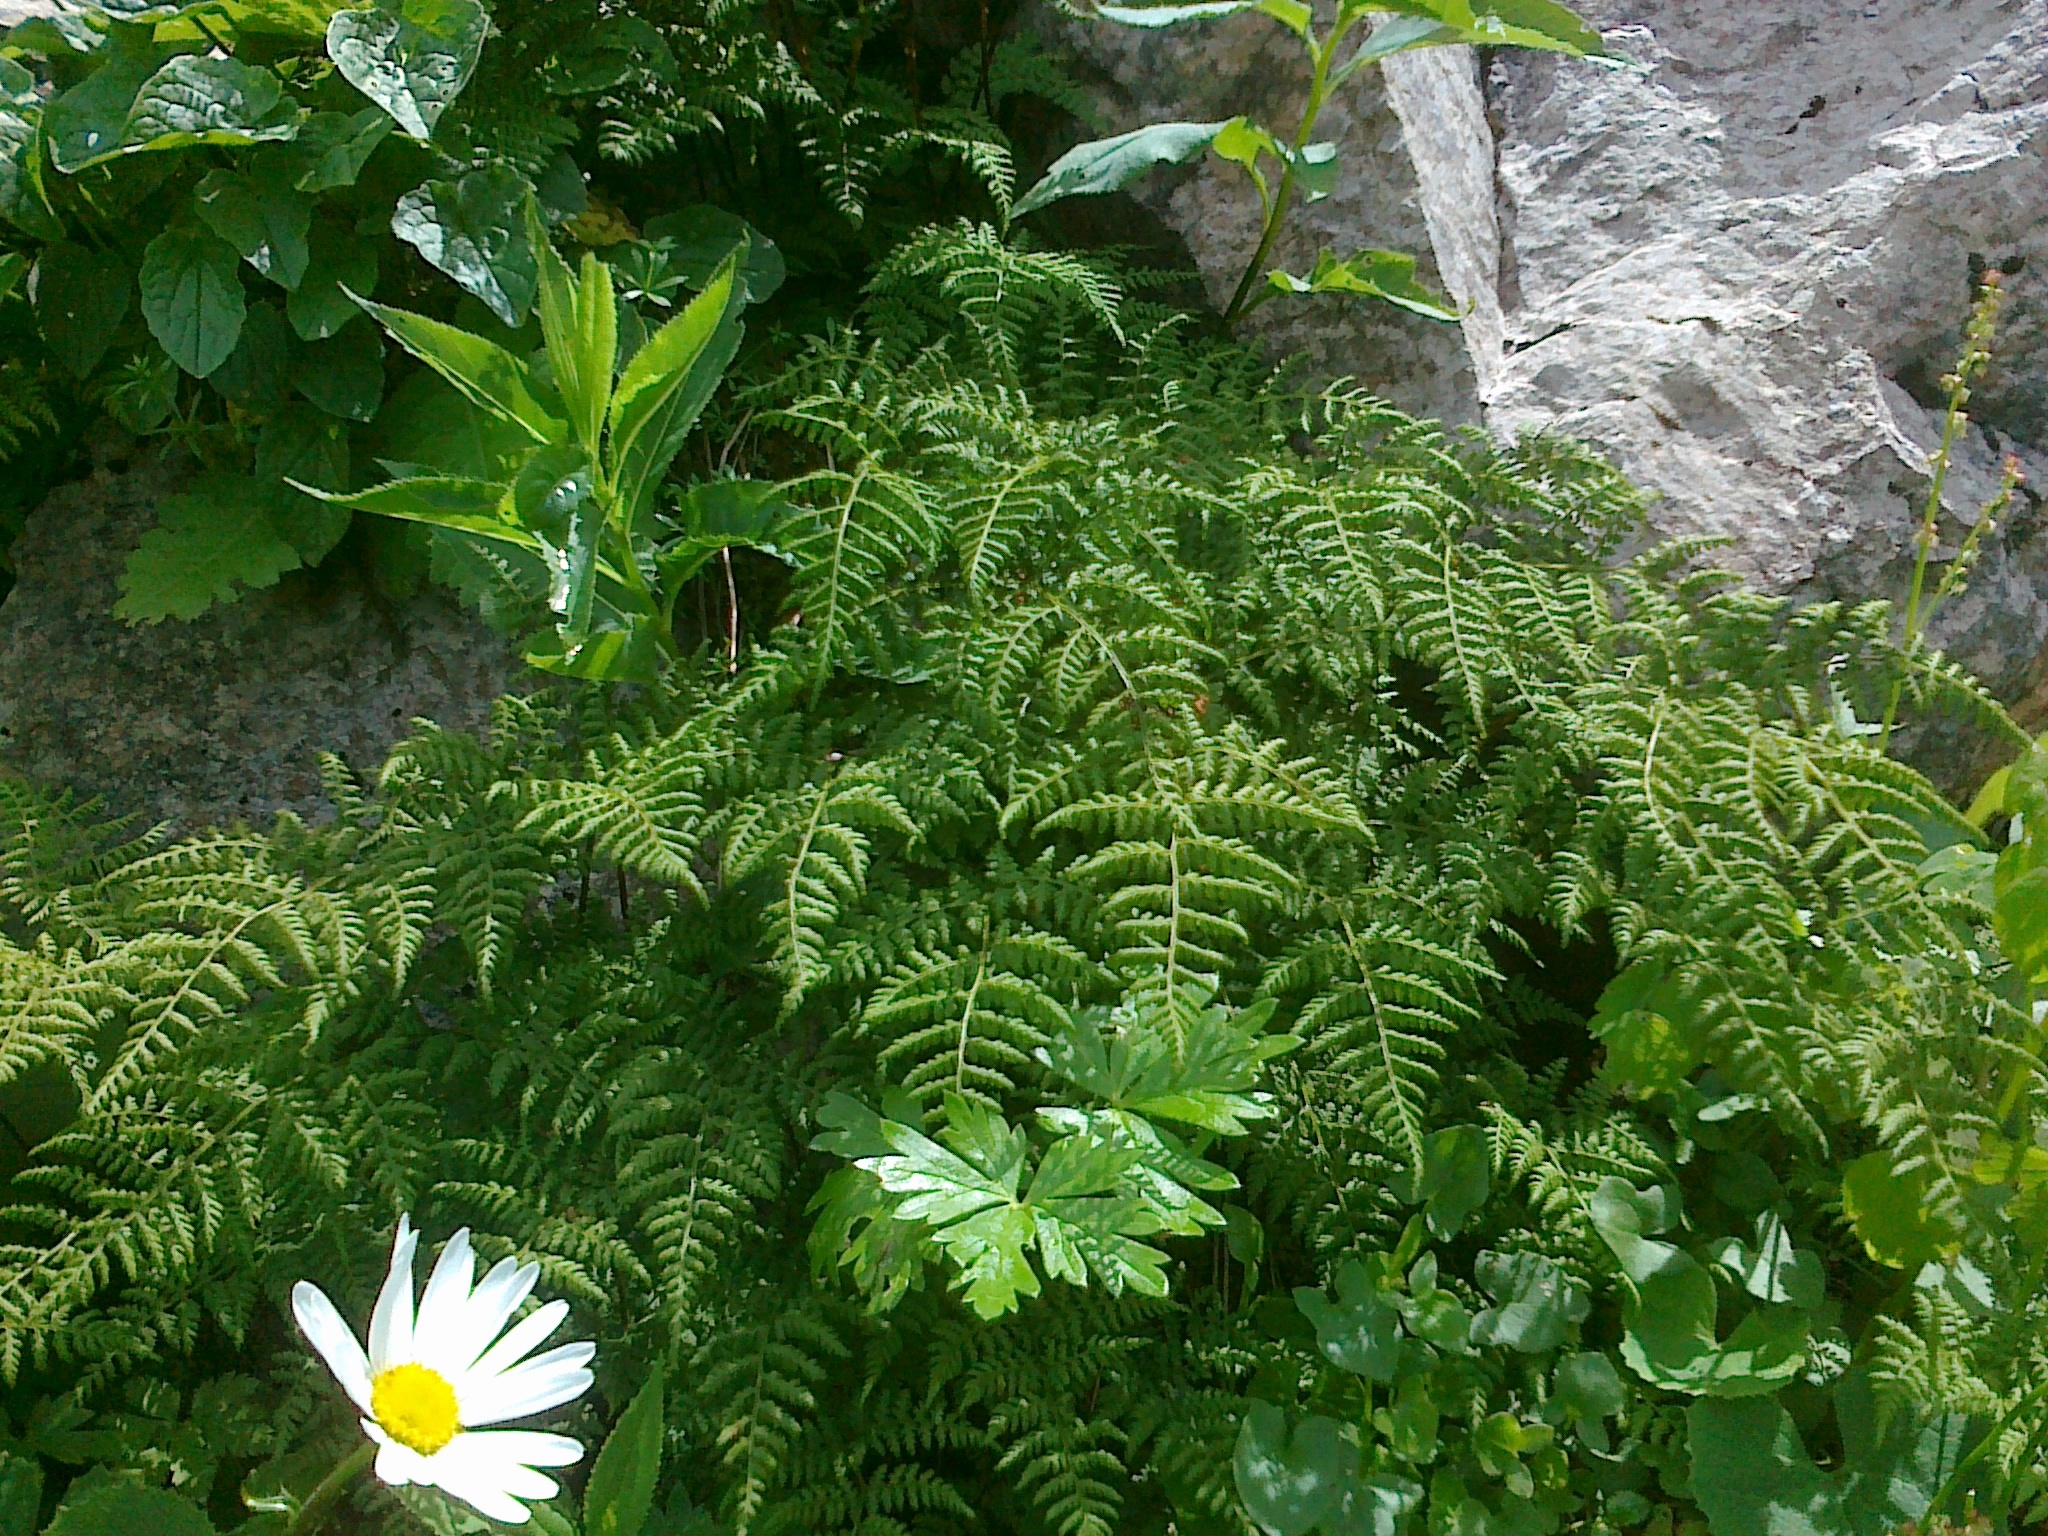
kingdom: Plantae
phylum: Tracheophyta
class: Polypodiopsida
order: Polypodiales
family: Cystopteridaceae
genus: Cystopteris
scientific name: Cystopteris montana
